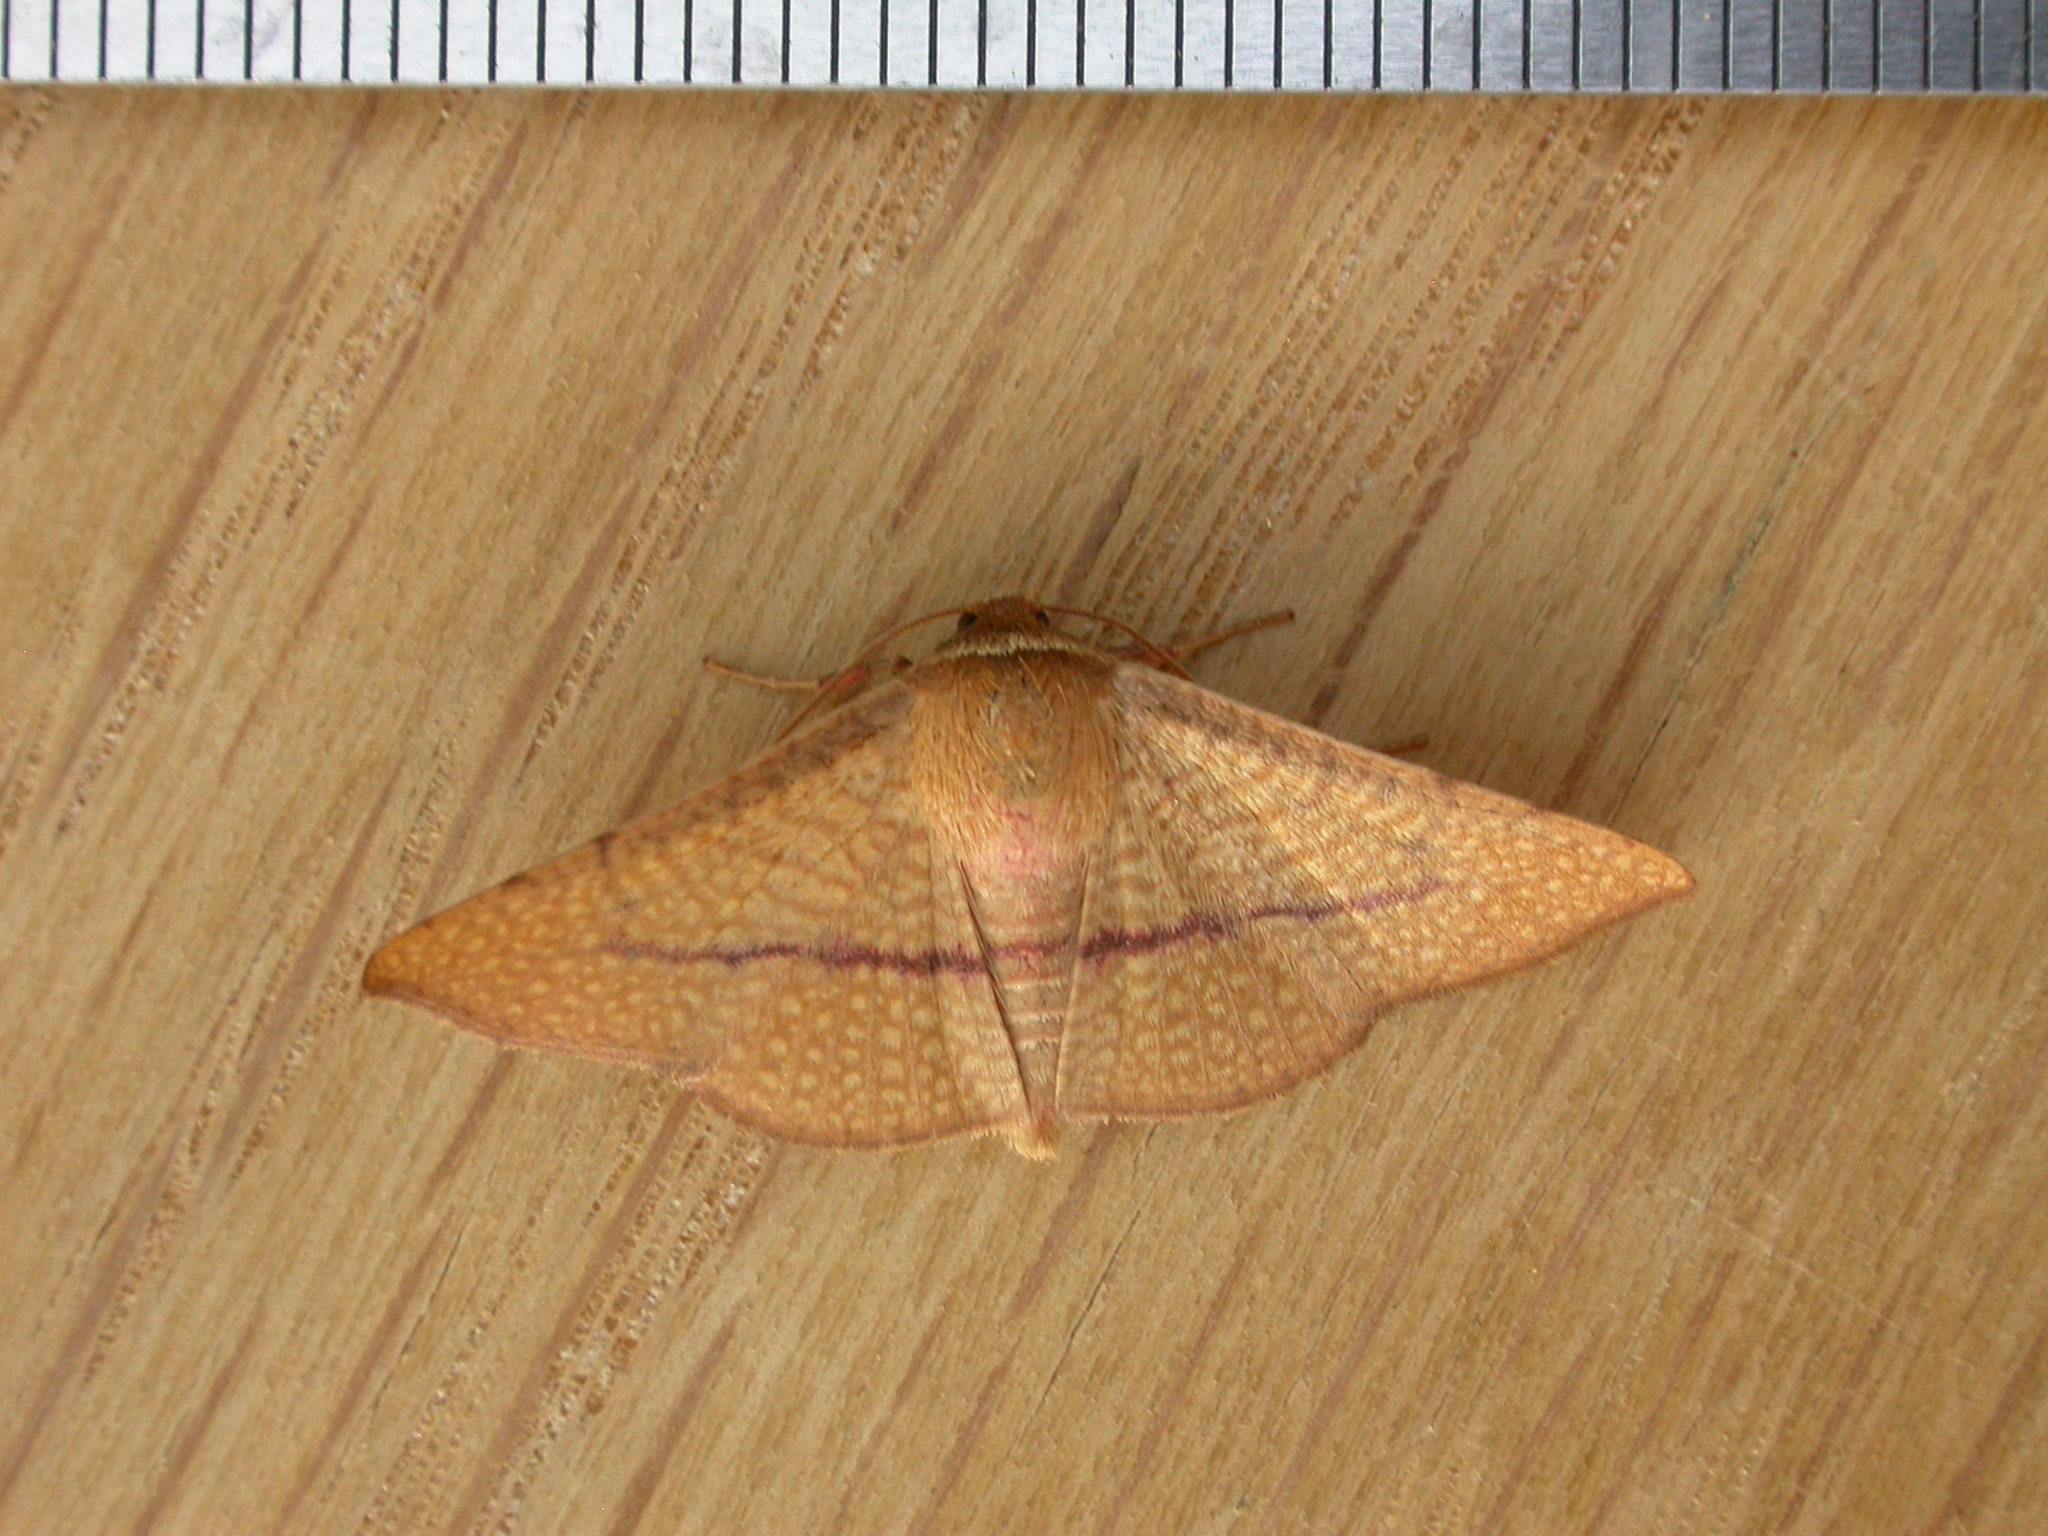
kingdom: Animalia
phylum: Arthropoda
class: Insecta
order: Lepidoptera
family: Thyrididae
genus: Aglaopus
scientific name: Aglaopus pyrrhata
